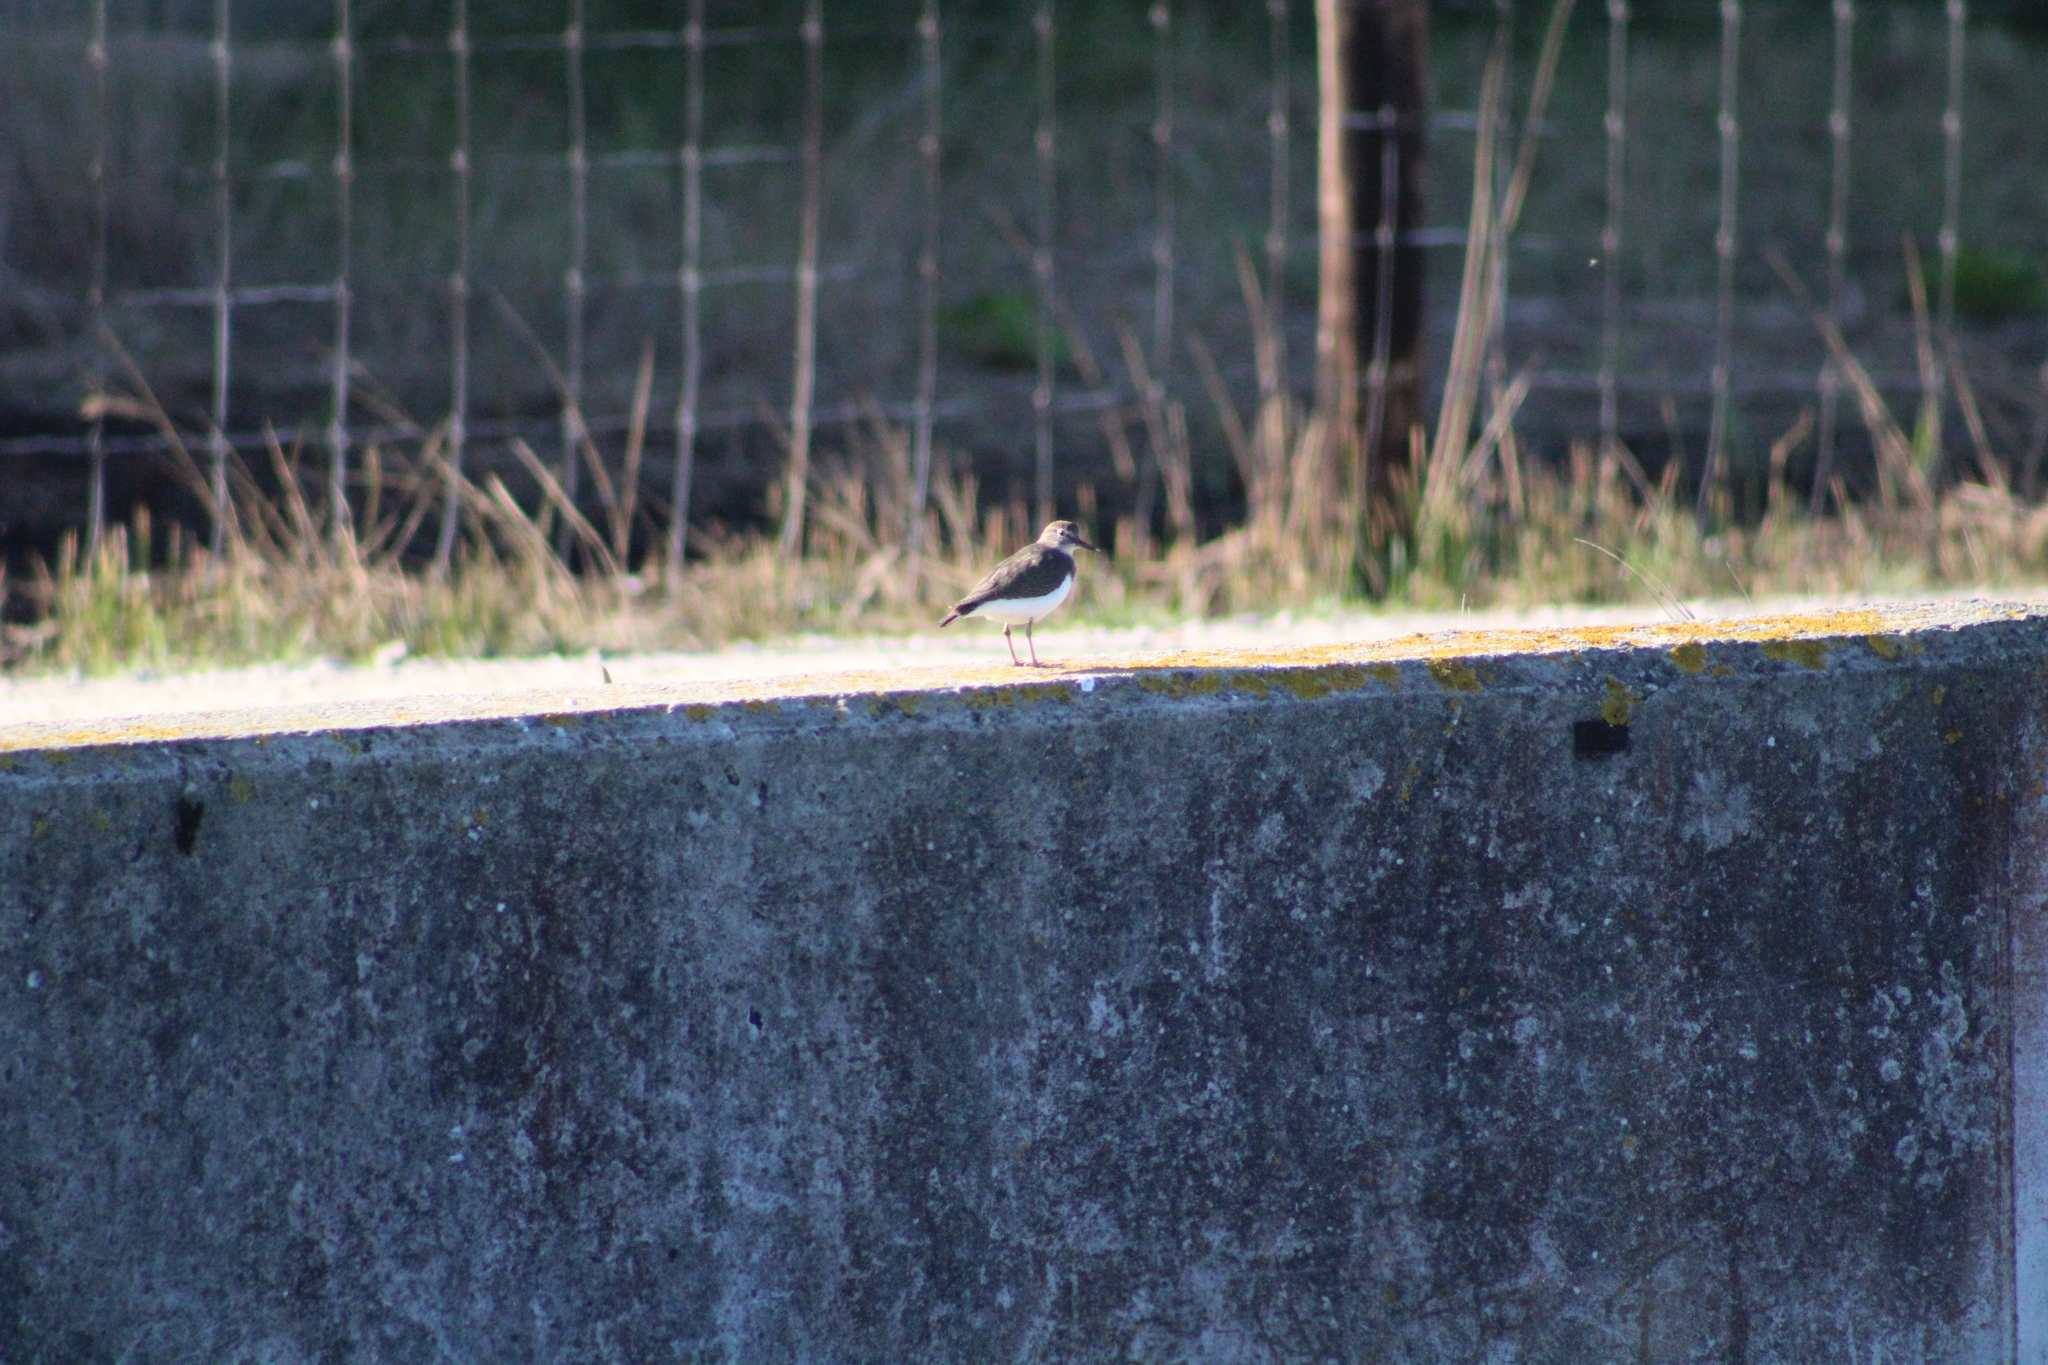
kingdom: Animalia
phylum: Chordata
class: Aves
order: Charadriiformes
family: Scolopacidae
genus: Actitis
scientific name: Actitis hypoleucos
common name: Common sandpiper
